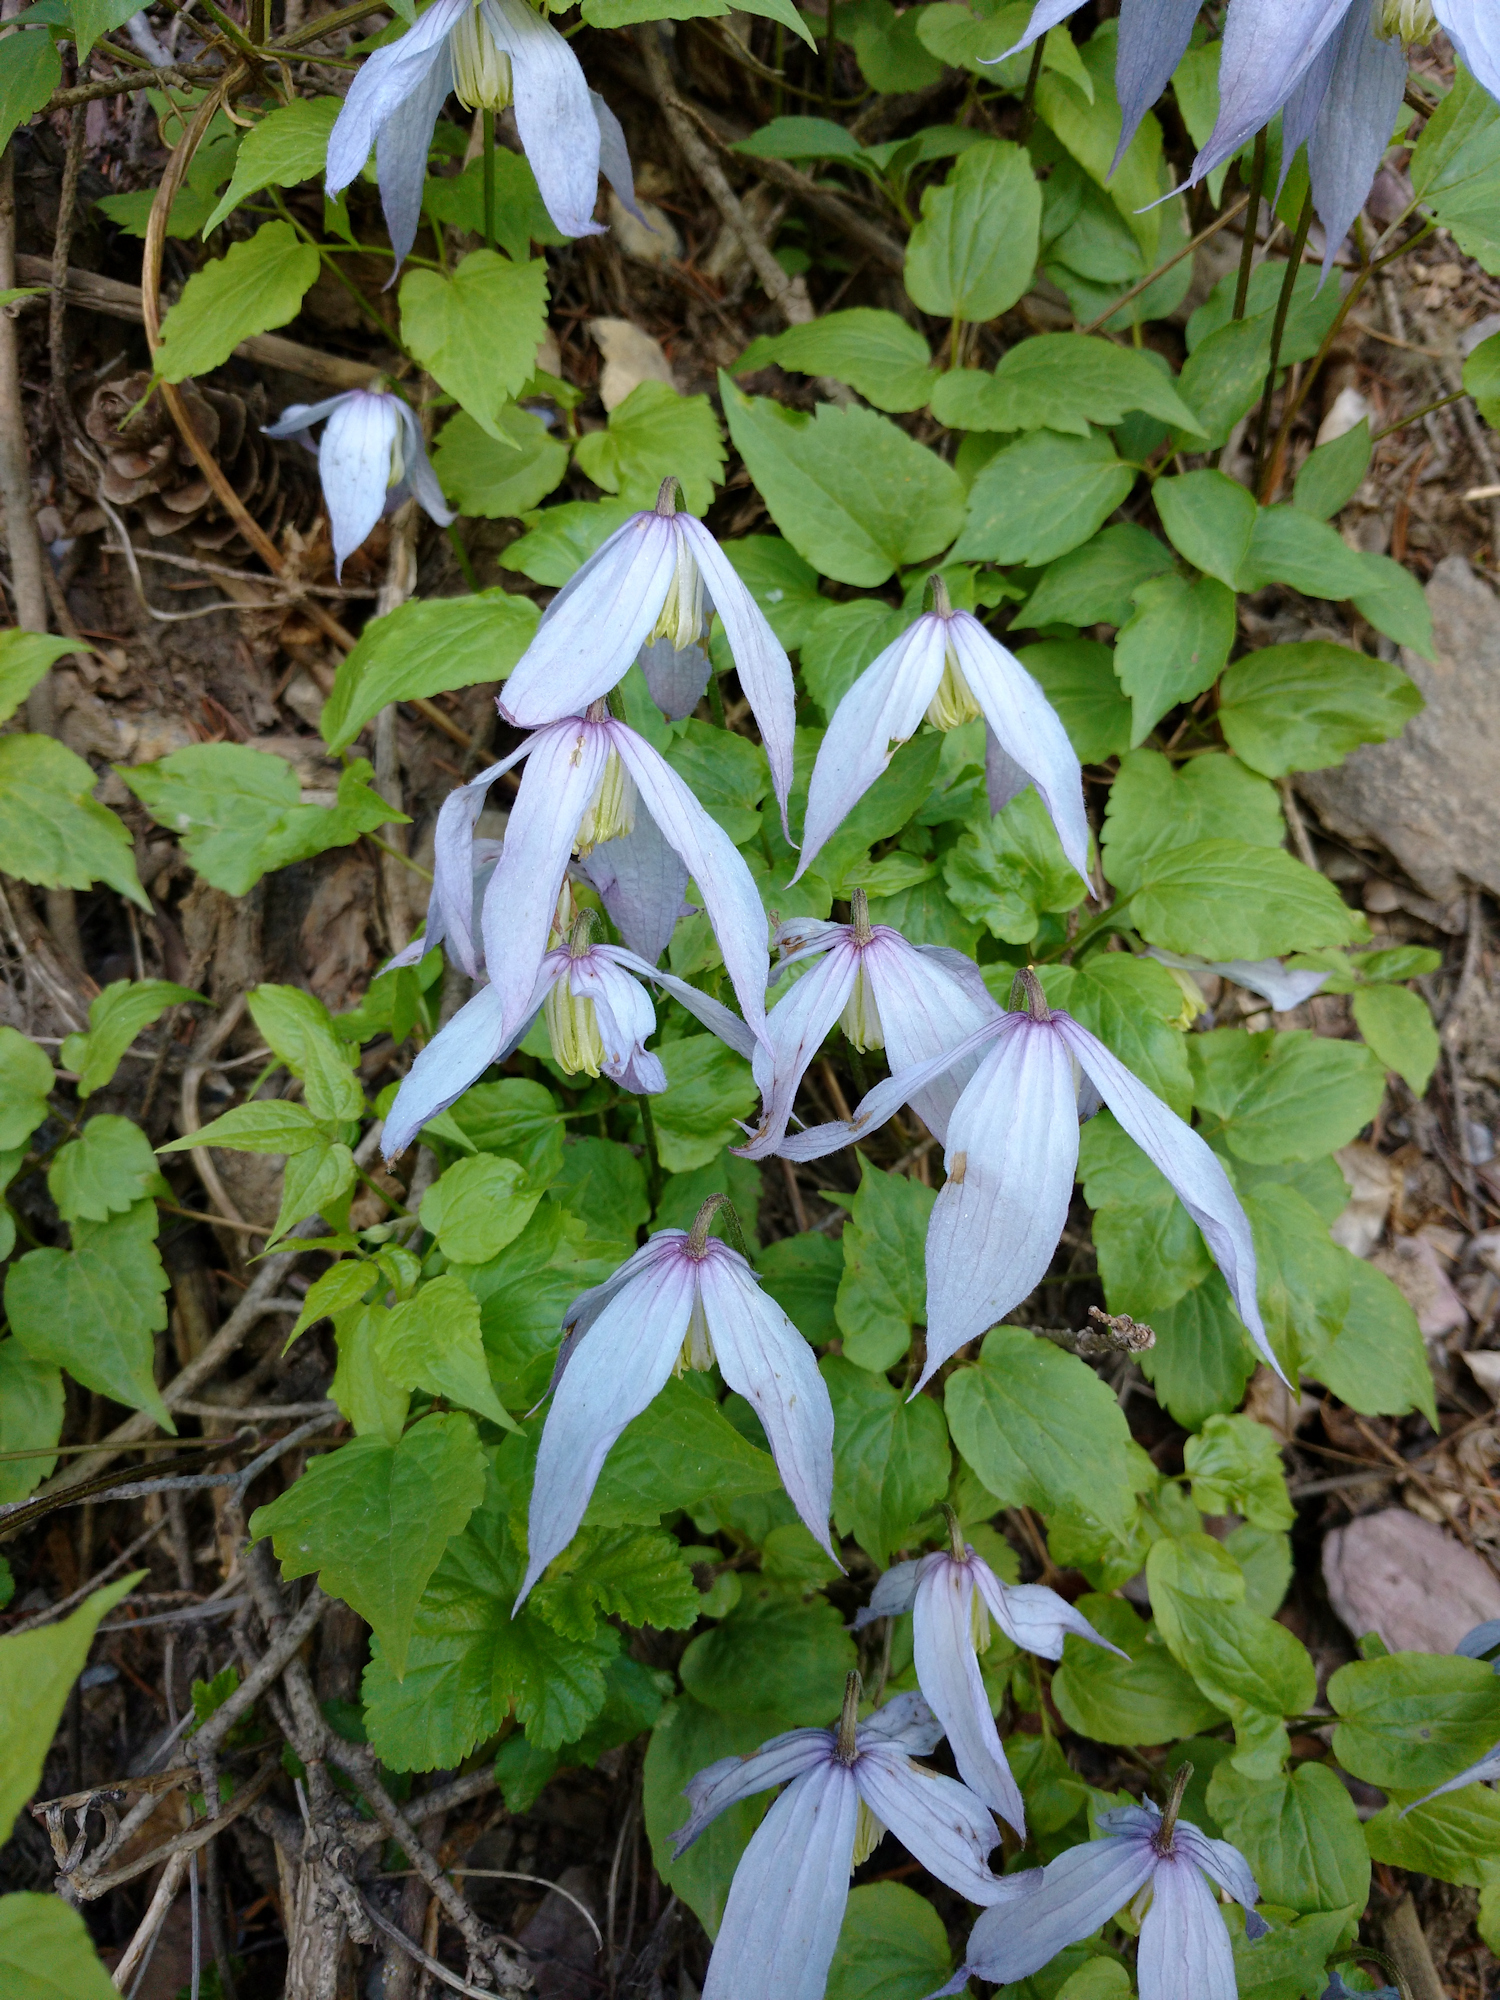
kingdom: Plantae
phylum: Tracheophyta
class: Magnoliopsida
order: Ranunculales
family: Ranunculaceae
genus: Clematis
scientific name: Clematis occidentalis
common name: Purple clematis
